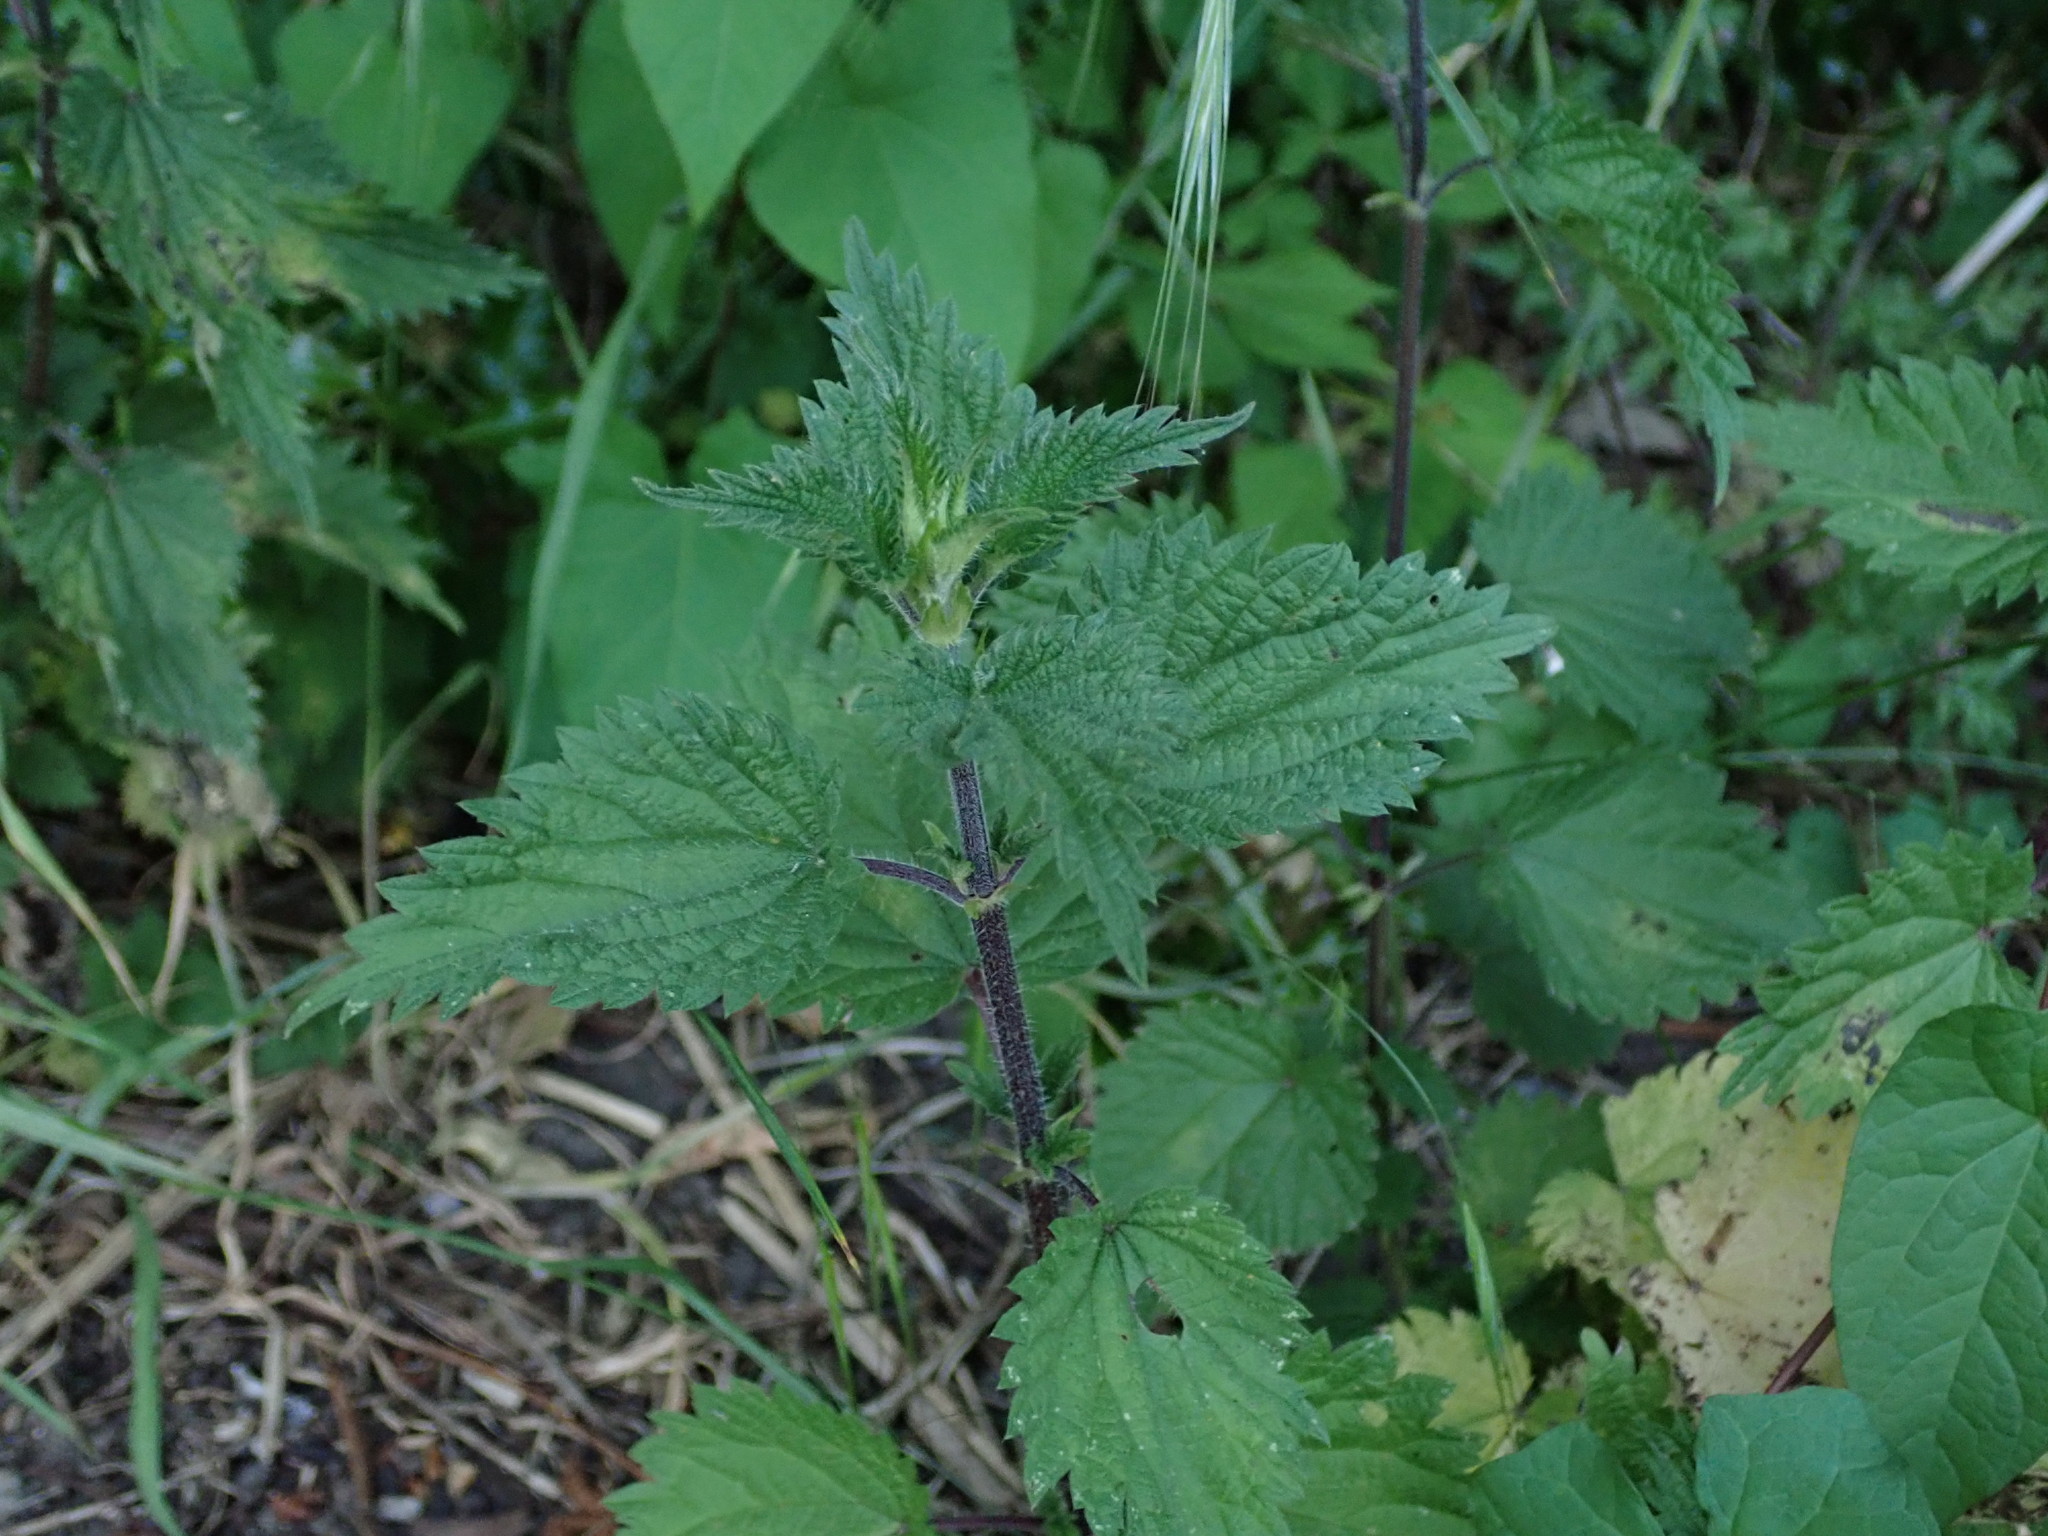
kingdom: Plantae
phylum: Tracheophyta
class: Magnoliopsida
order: Rosales
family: Urticaceae
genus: Urtica
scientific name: Urtica dioica
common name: Common nettle
